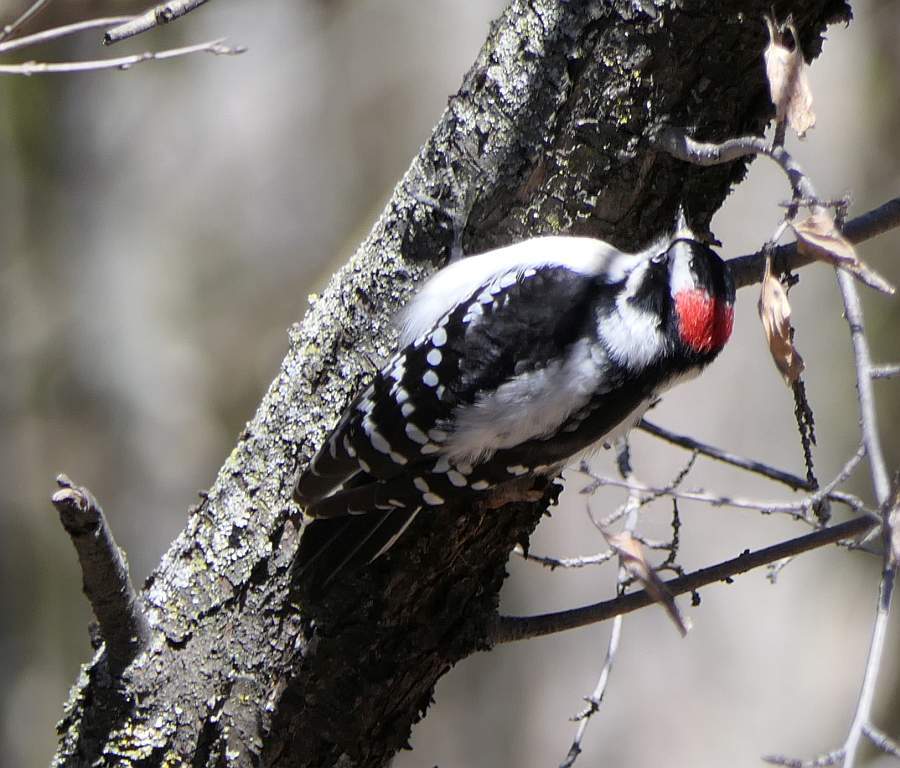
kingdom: Animalia
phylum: Chordata
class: Aves
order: Piciformes
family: Picidae
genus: Dryobates
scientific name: Dryobates pubescens
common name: Downy woodpecker
